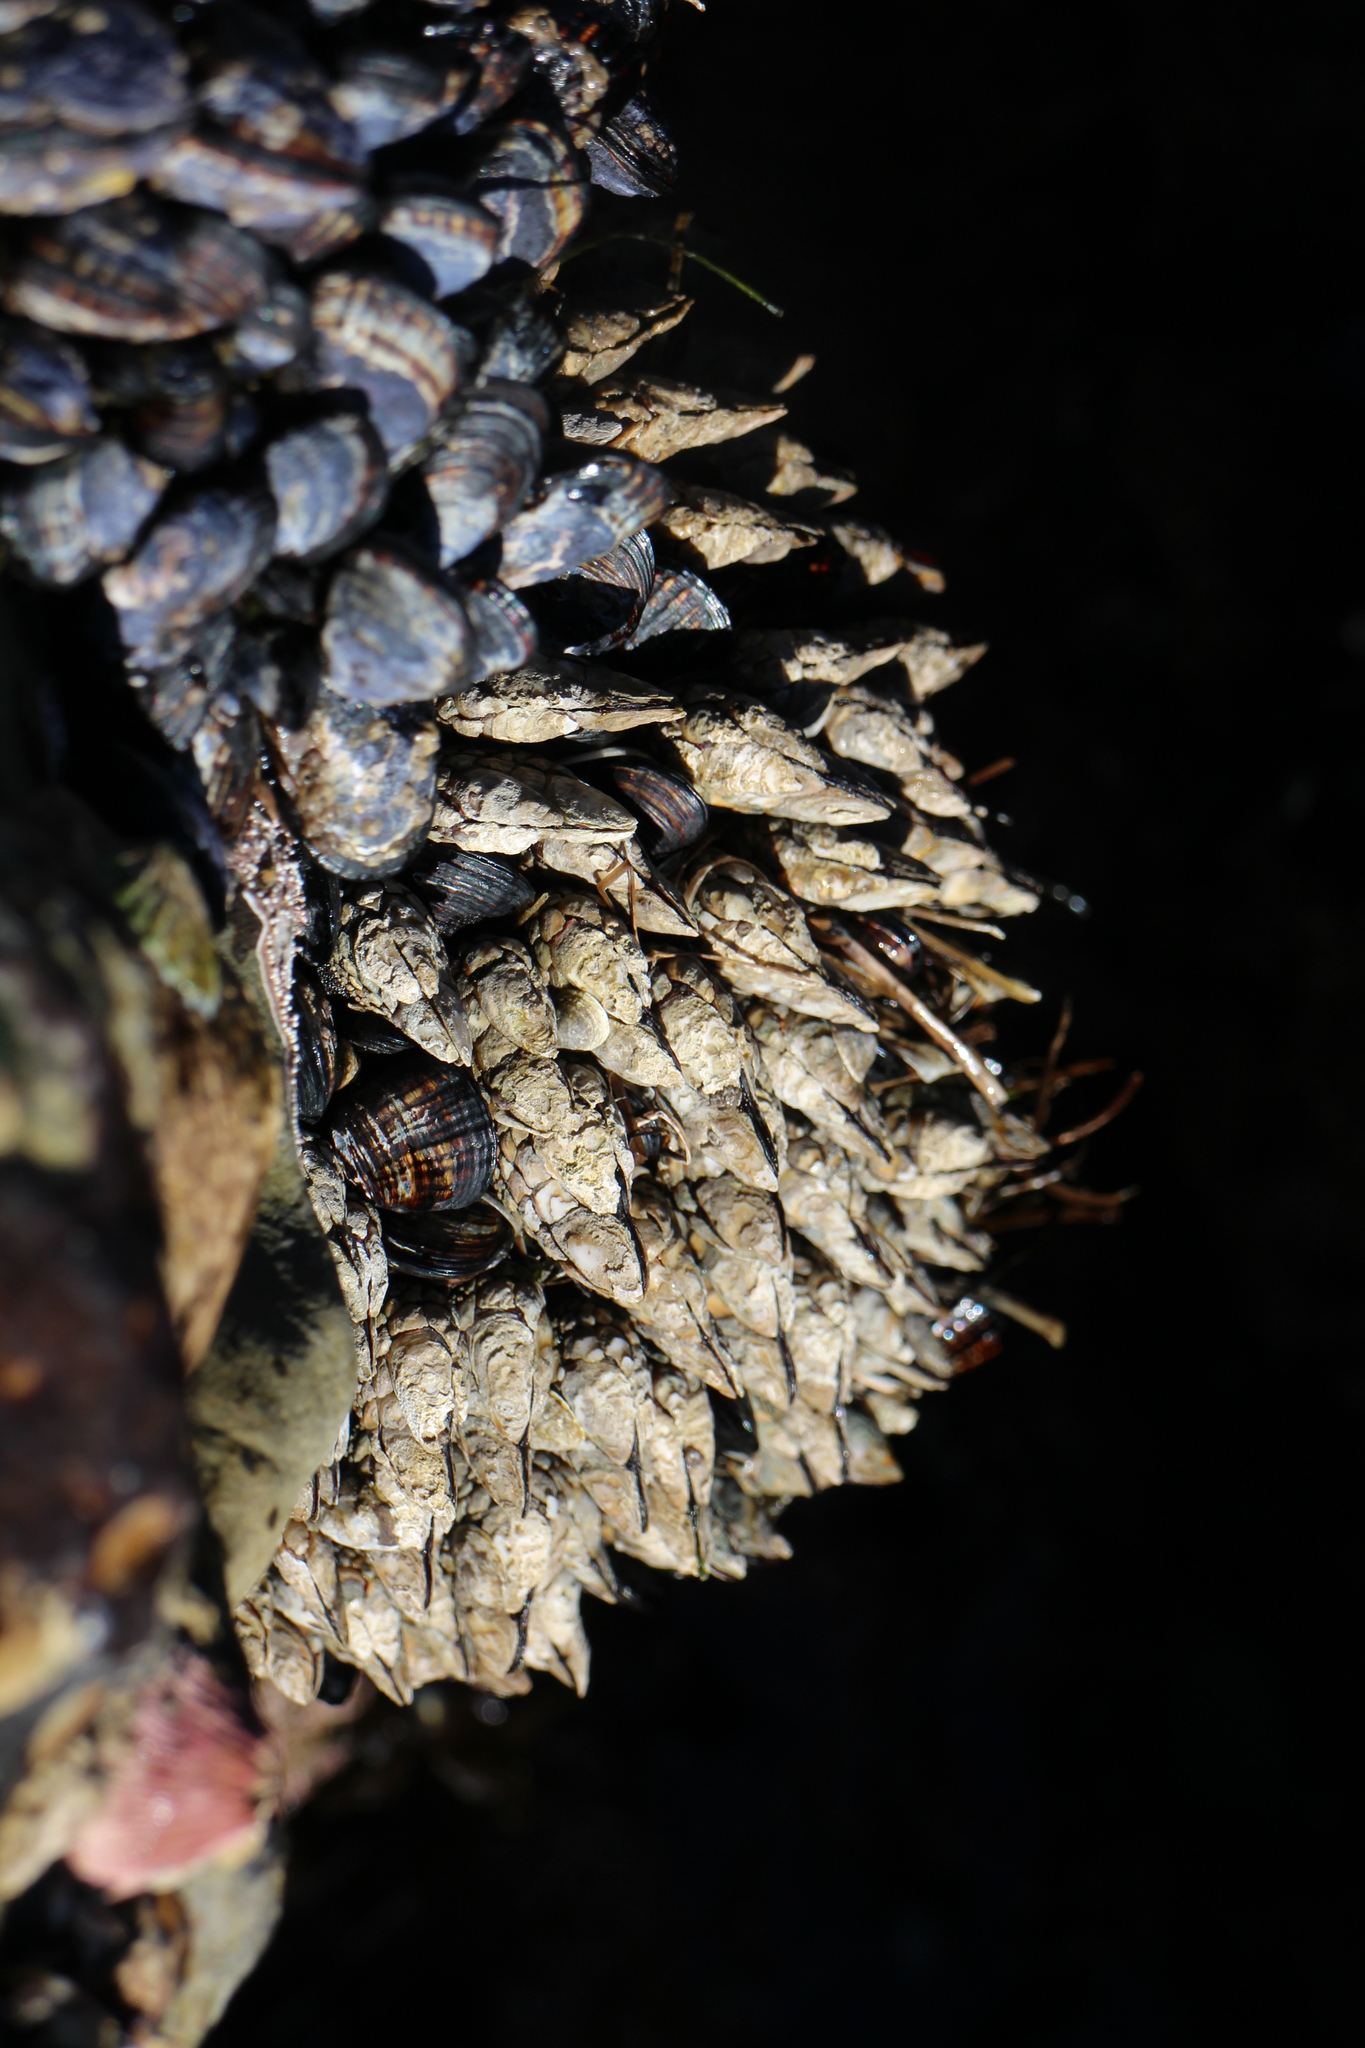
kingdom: Animalia
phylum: Arthropoda
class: Maxillopoda
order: Pedunculata
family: Pollicipedidae
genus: Pollicipes
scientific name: Pollicipes polymerus
